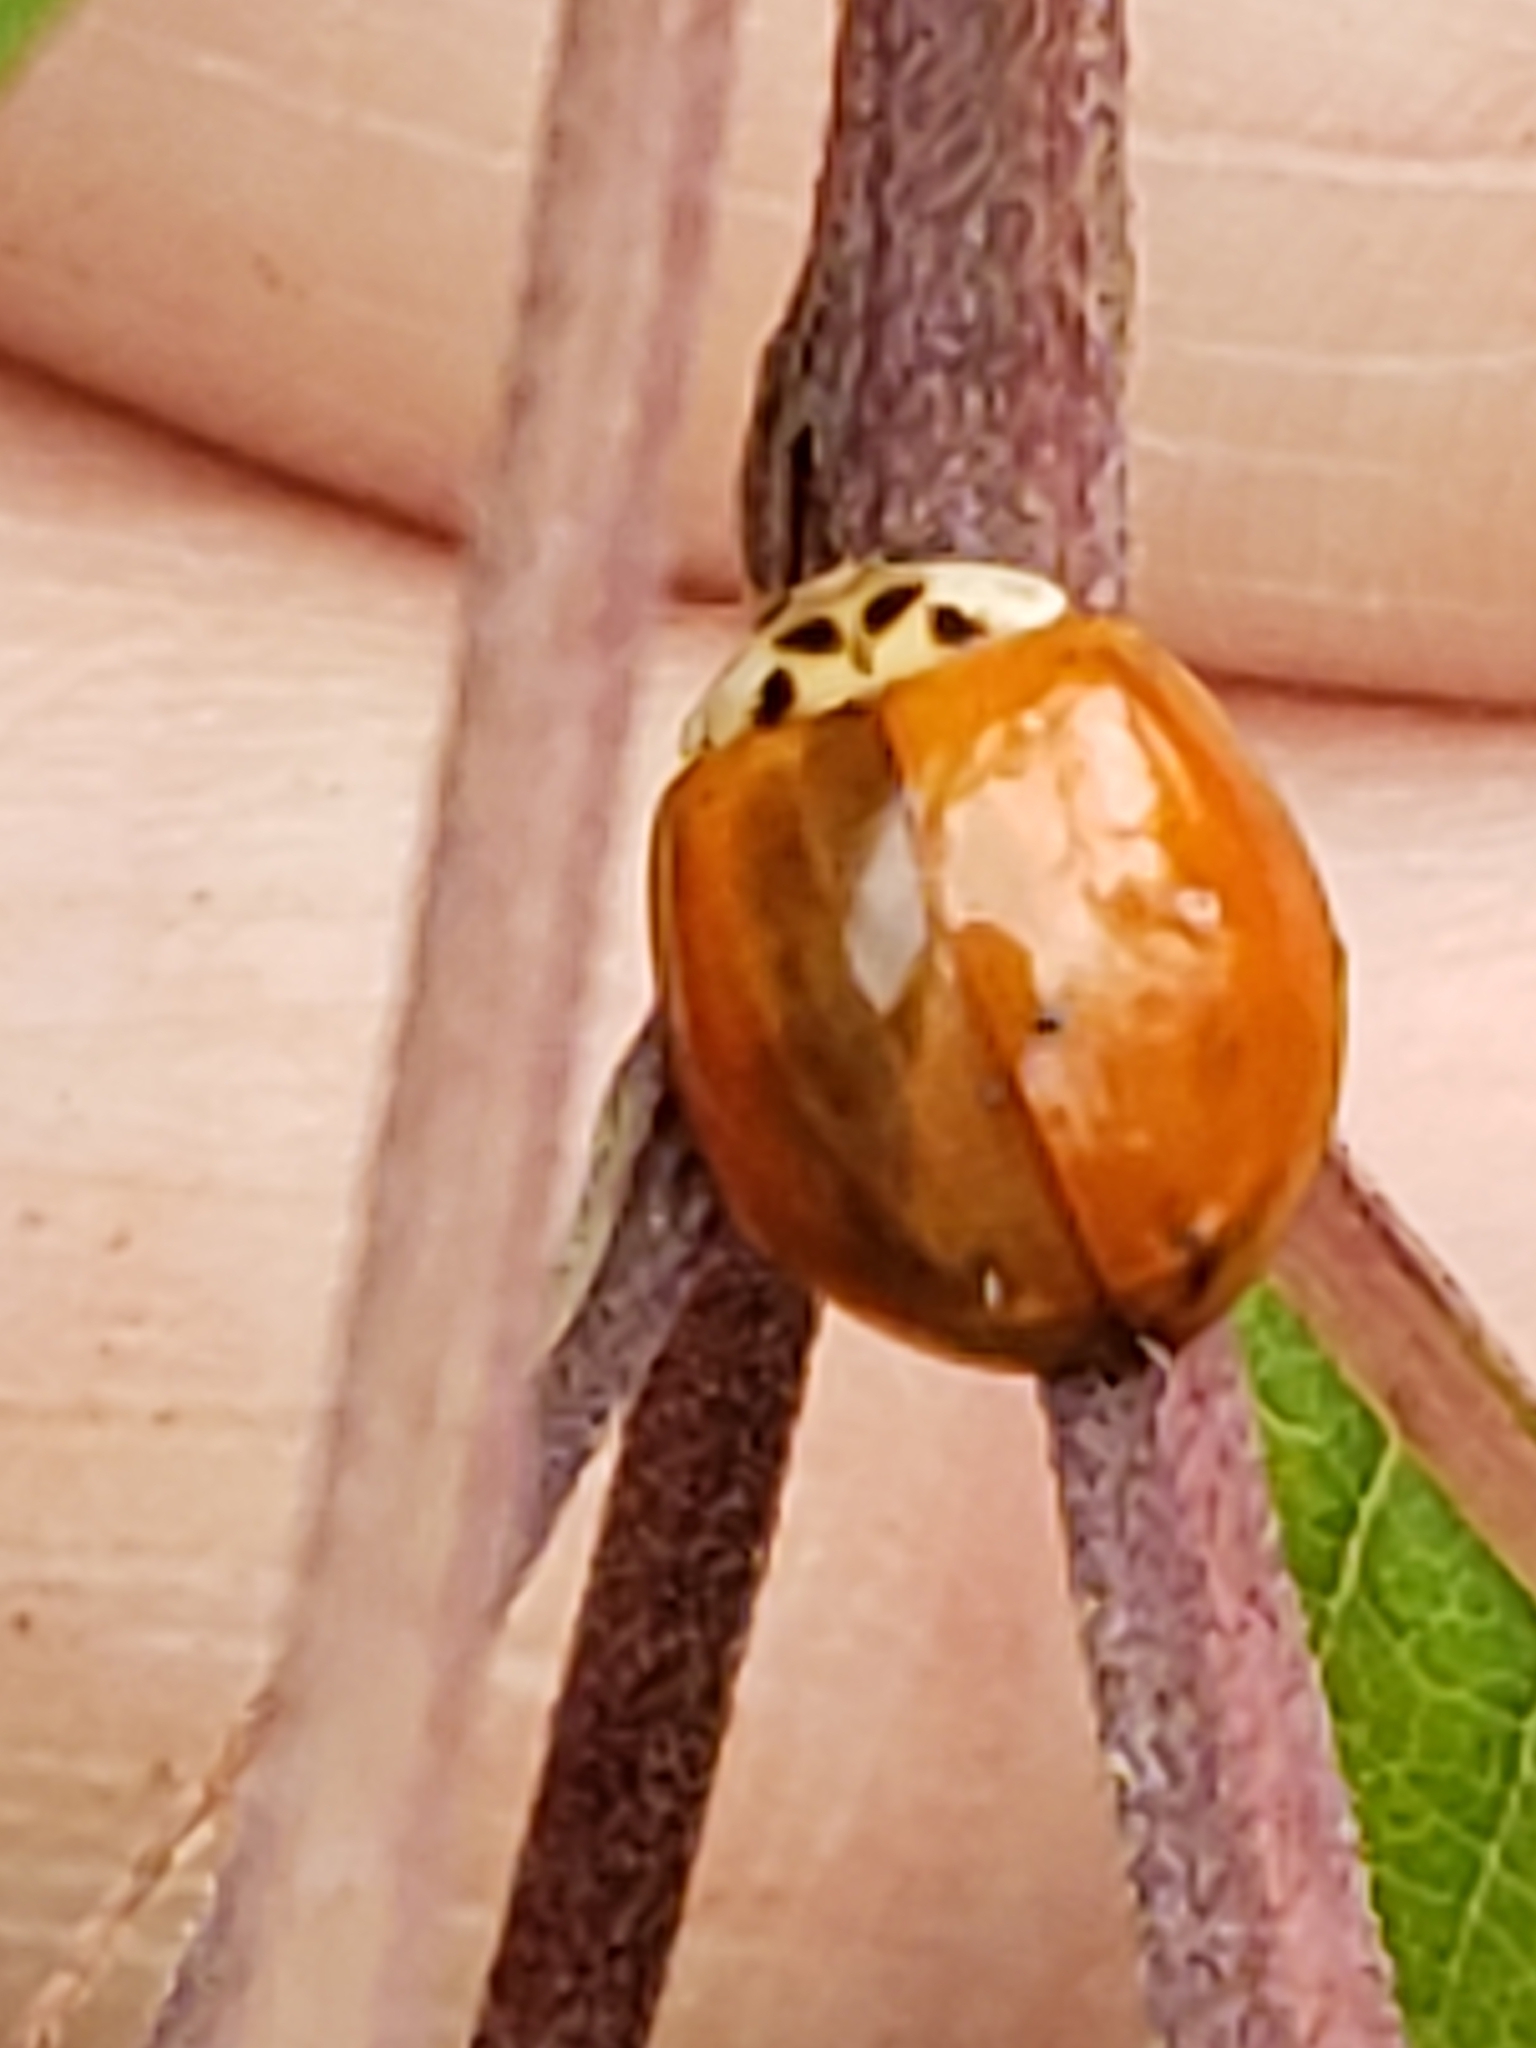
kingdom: Animalia
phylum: Arthropoda
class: Insecta
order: Coleoptera
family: Coccinellidae
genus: Harmonia
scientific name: Harmonia axyridis
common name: Harlequin ladybird
